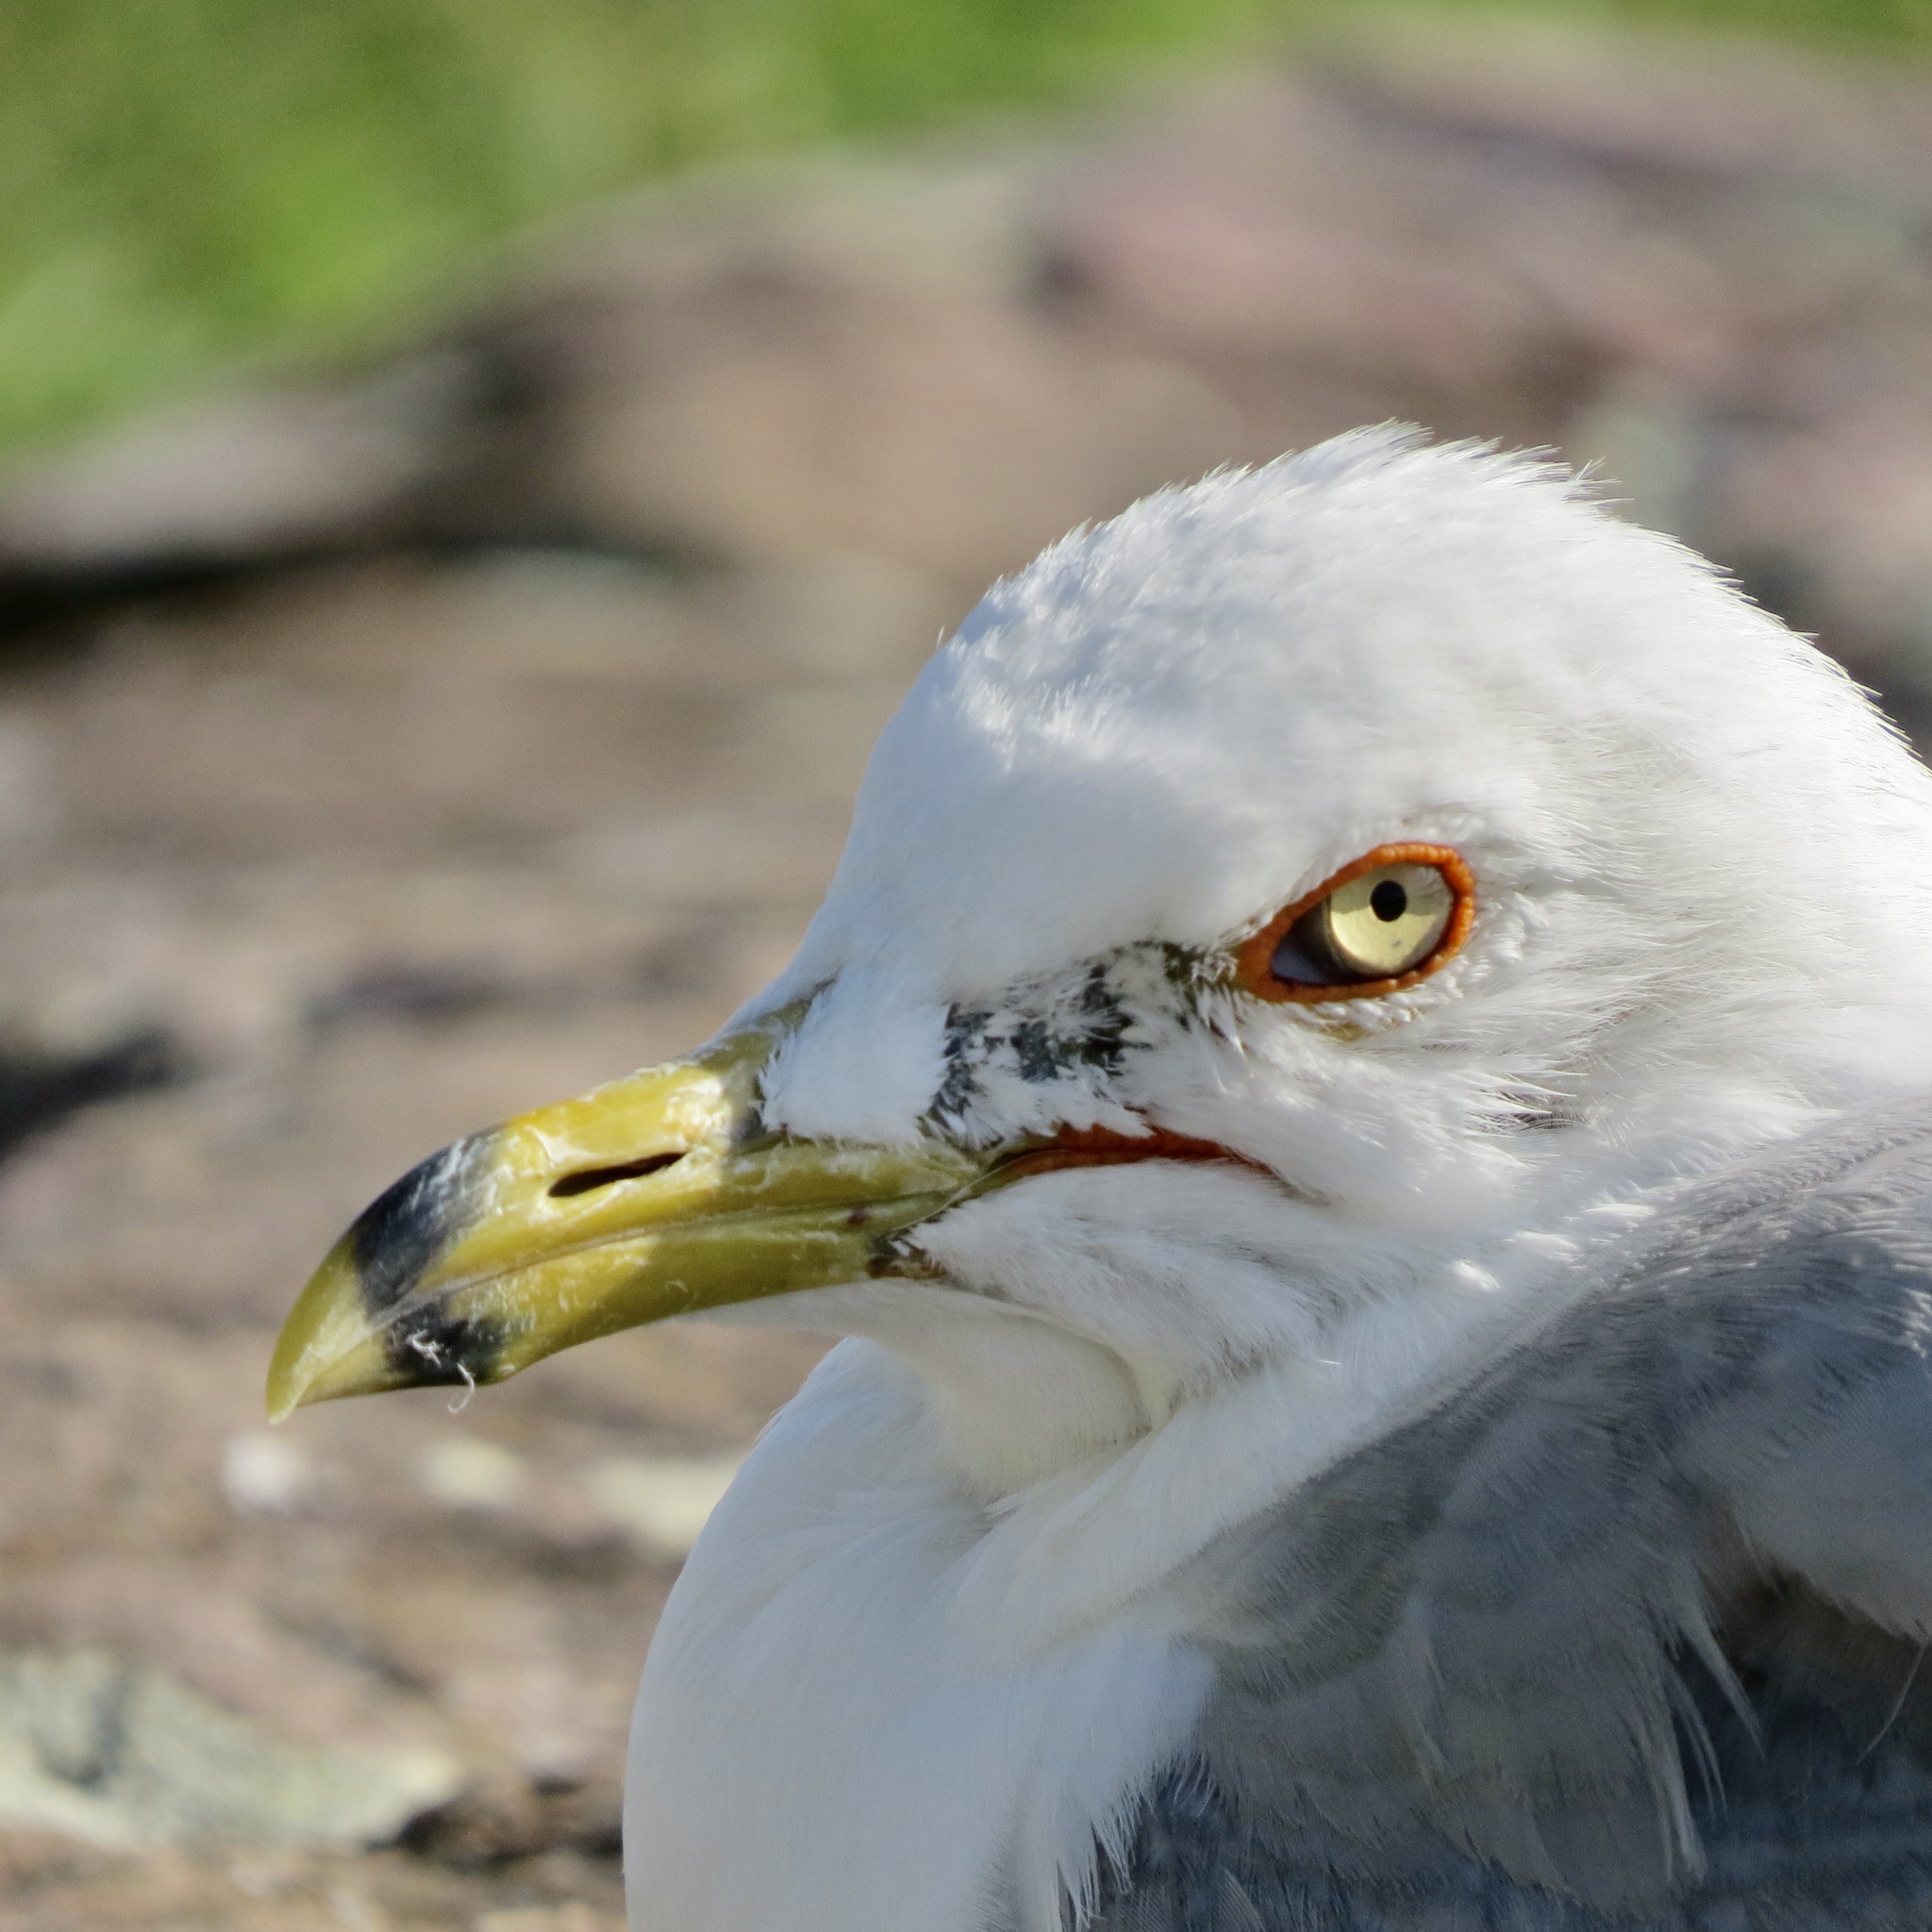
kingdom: Animalia
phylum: Chordata
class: Aves
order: Charadriiformes
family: Laridae
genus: Larus
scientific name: Larus delawarensis
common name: Ring-billed gull
